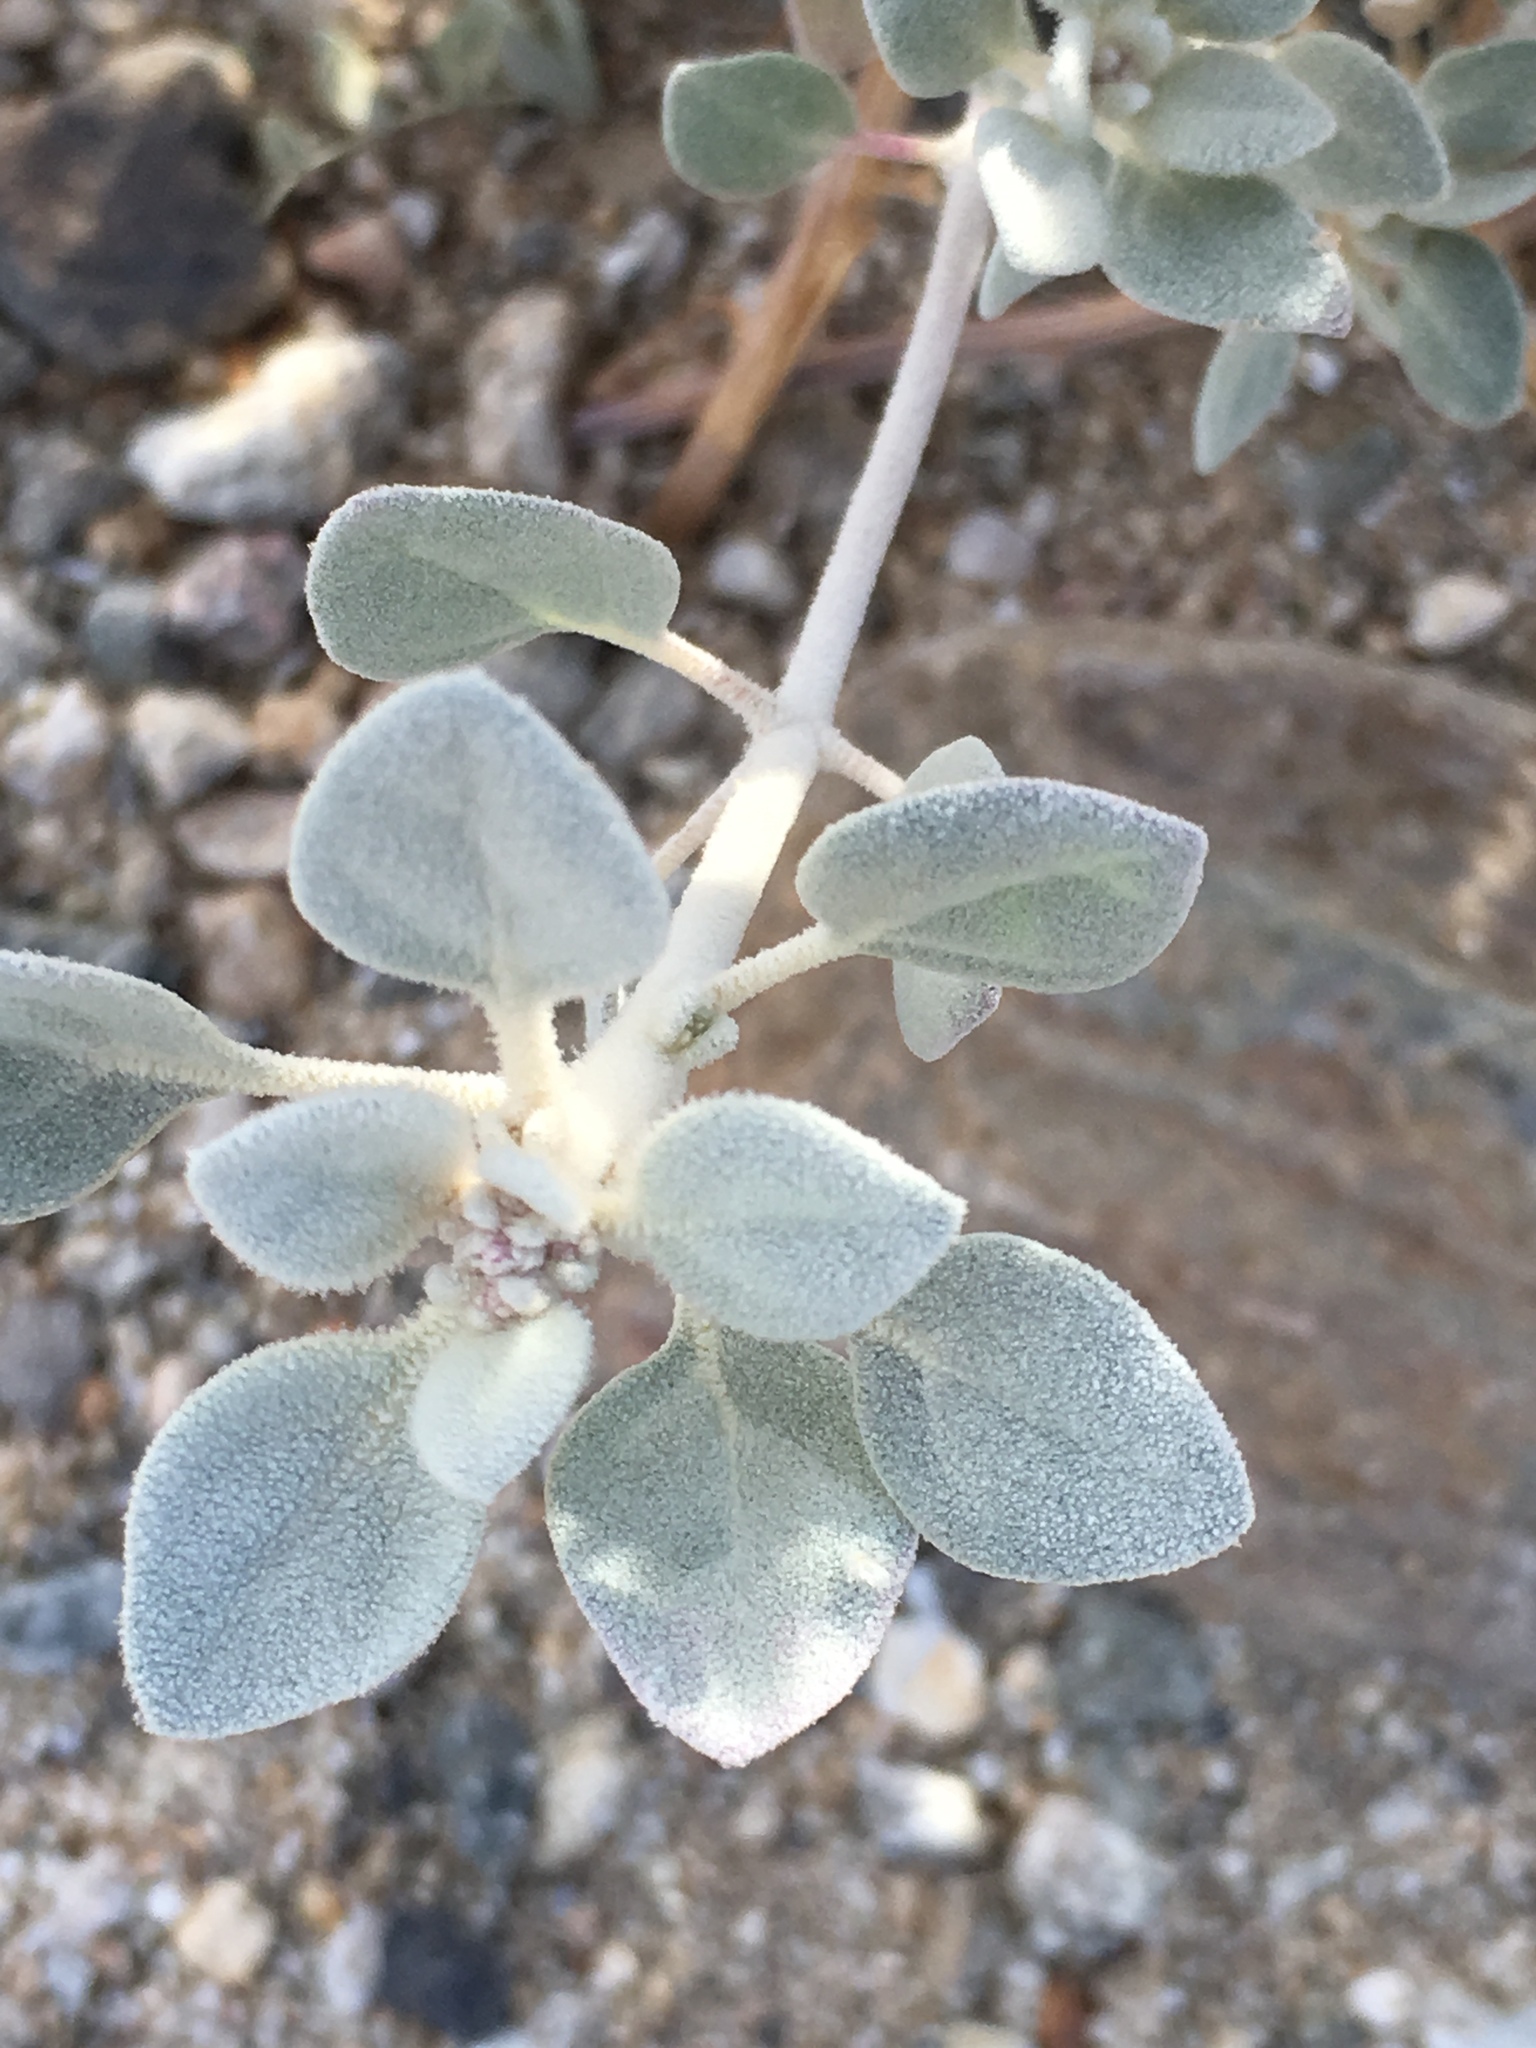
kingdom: Plantae
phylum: Tracheophyta
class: Magnoliopsida
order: Caryophyllales
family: Amaranthaceae
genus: Tidestromia
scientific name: Tidestromia suffruticosa
